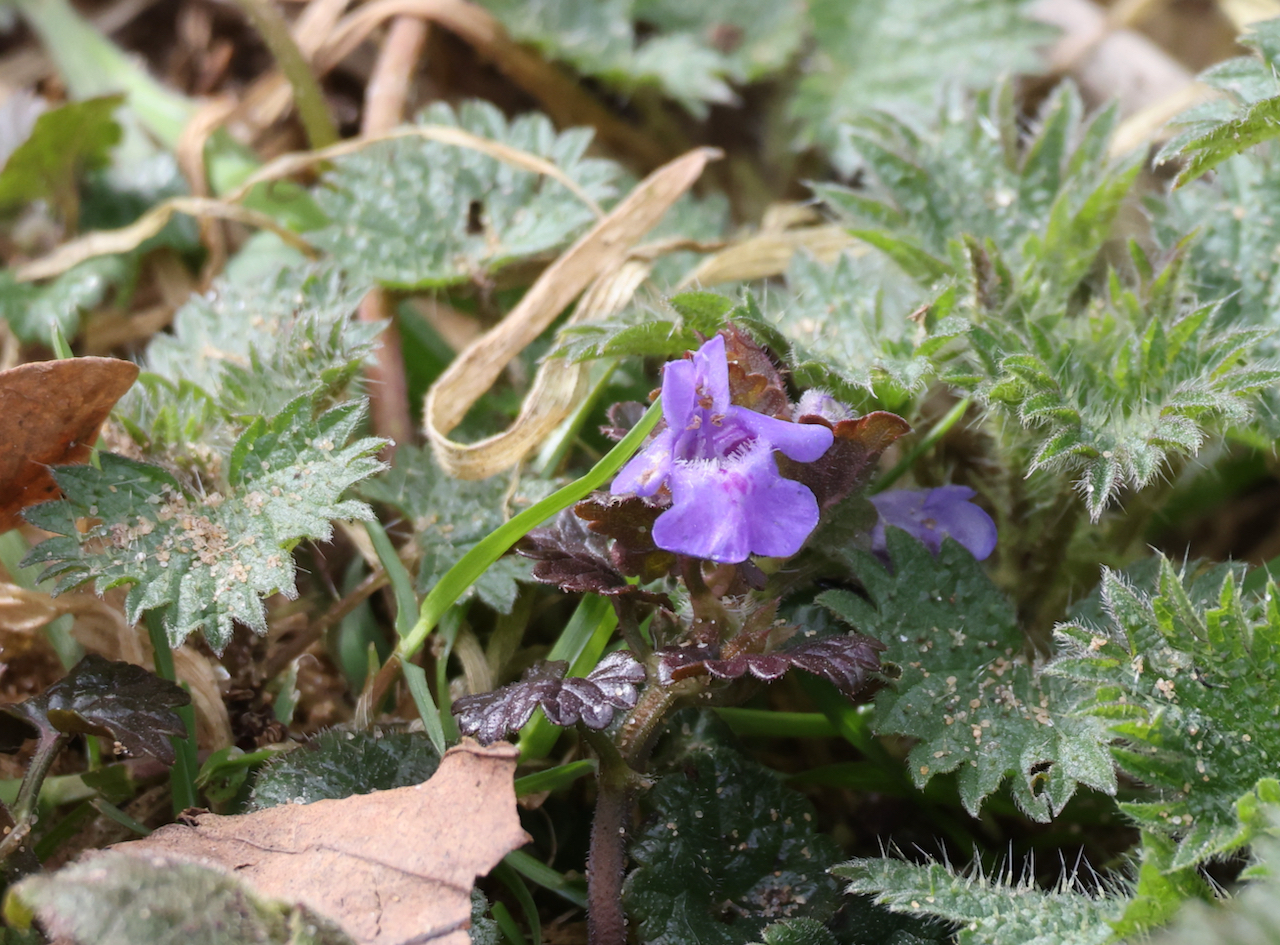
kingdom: Plantae
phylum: Tracheophyta
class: Magnoliopsida
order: Lamiales
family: Lamiaceae
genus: Glechoma
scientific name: Glechoma hederacea
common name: Ground ivy
